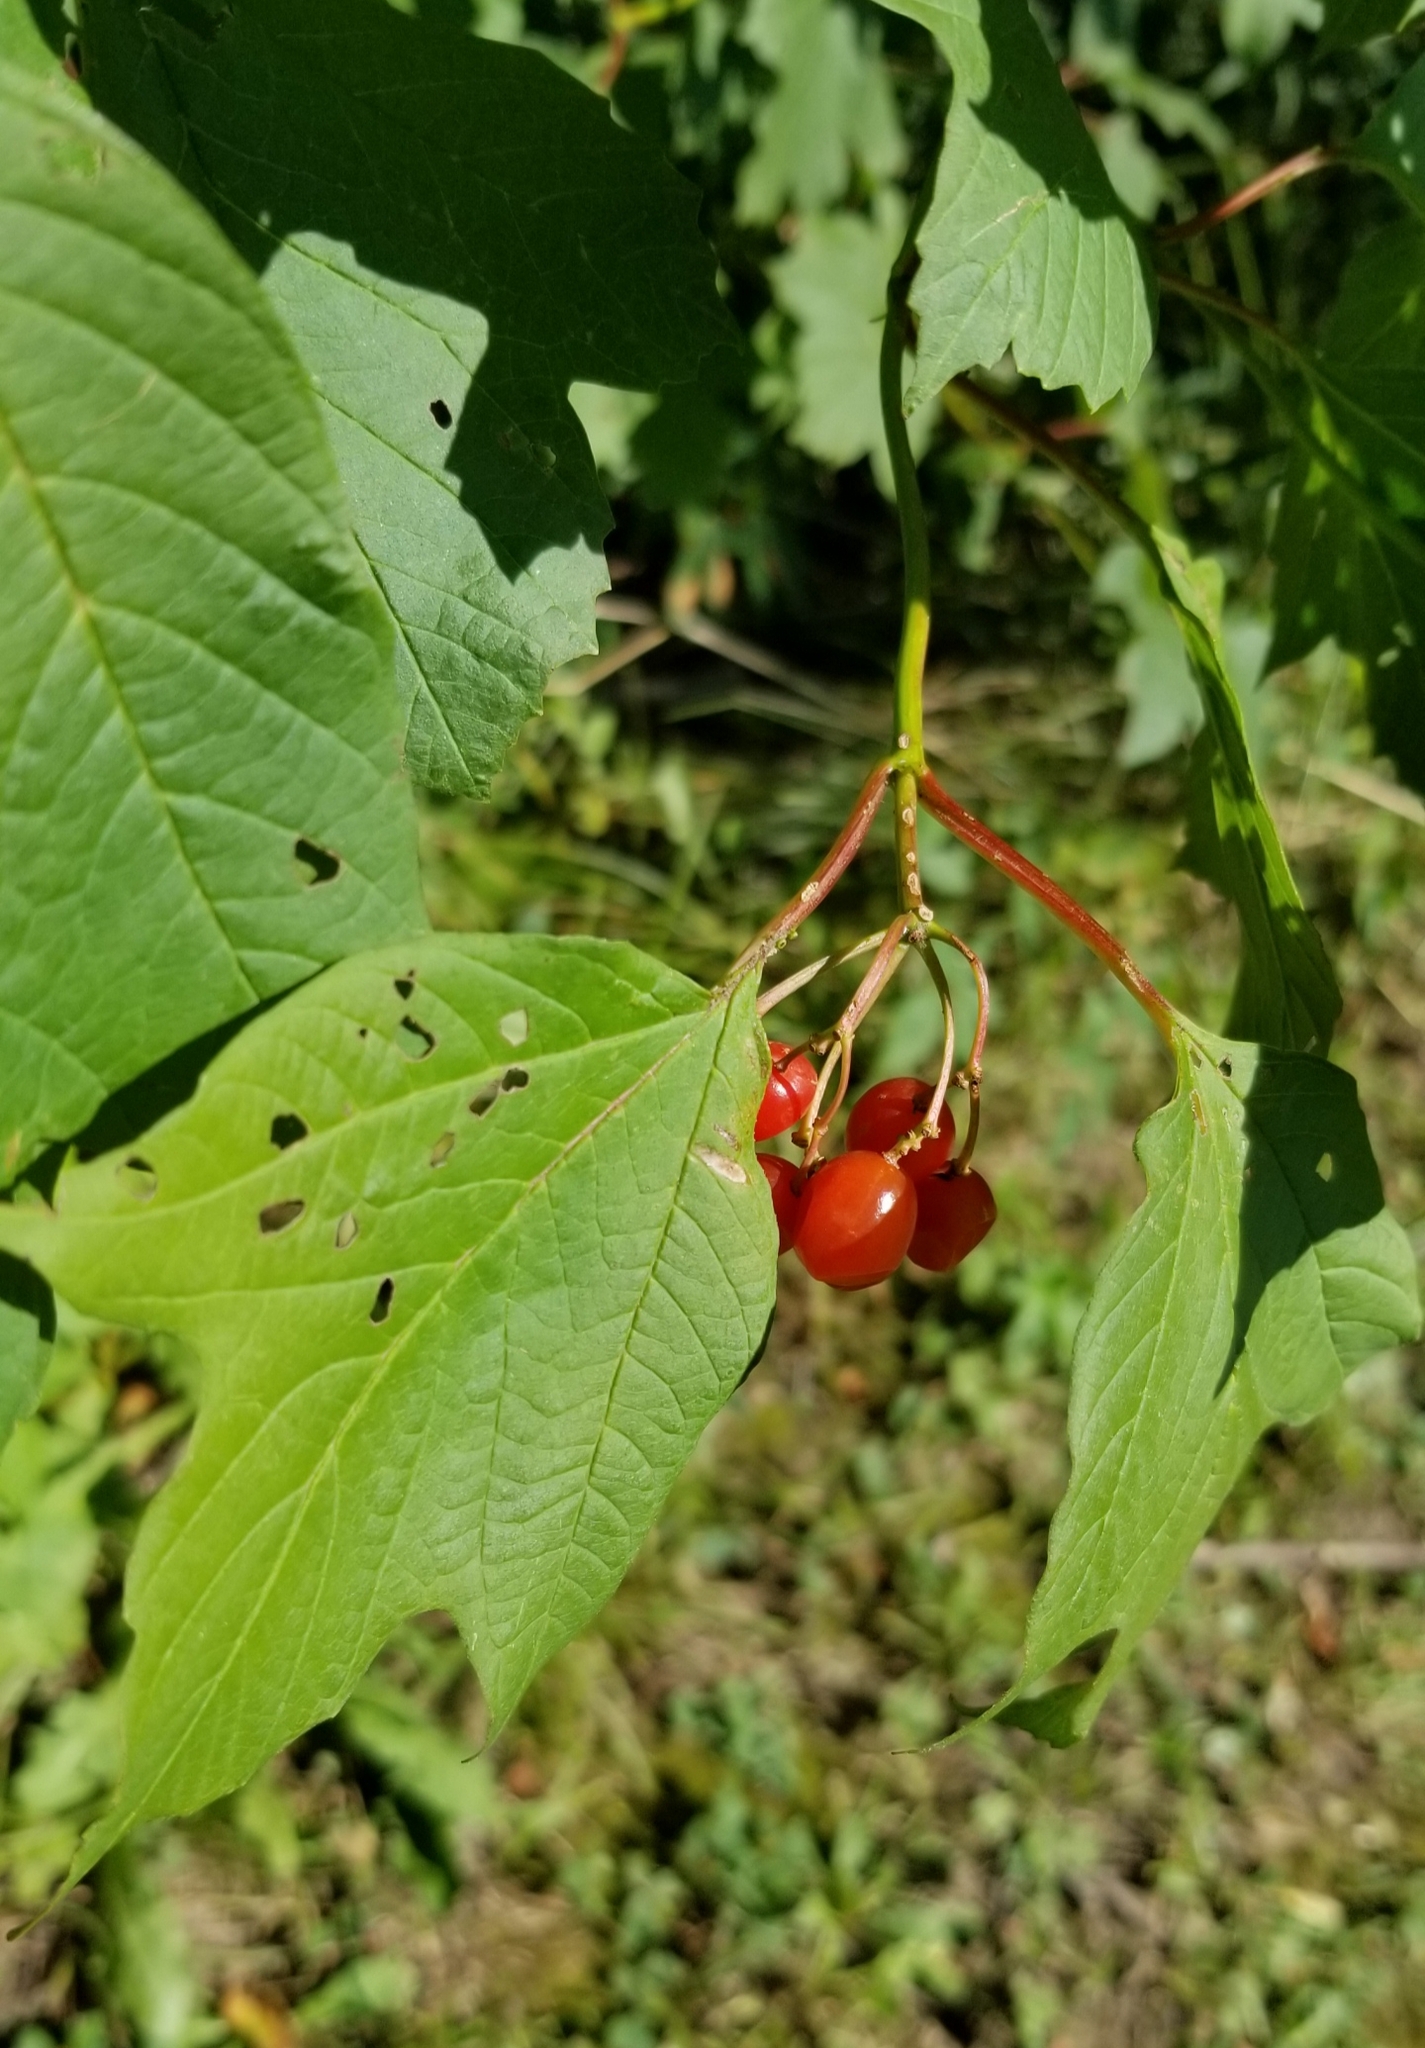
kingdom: Plantae
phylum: Tracheophyta
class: Magnoliopsida
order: Dipsacales
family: Viburnaceae
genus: Viburnum
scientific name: Viburnum opulus
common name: Guelder-rose
